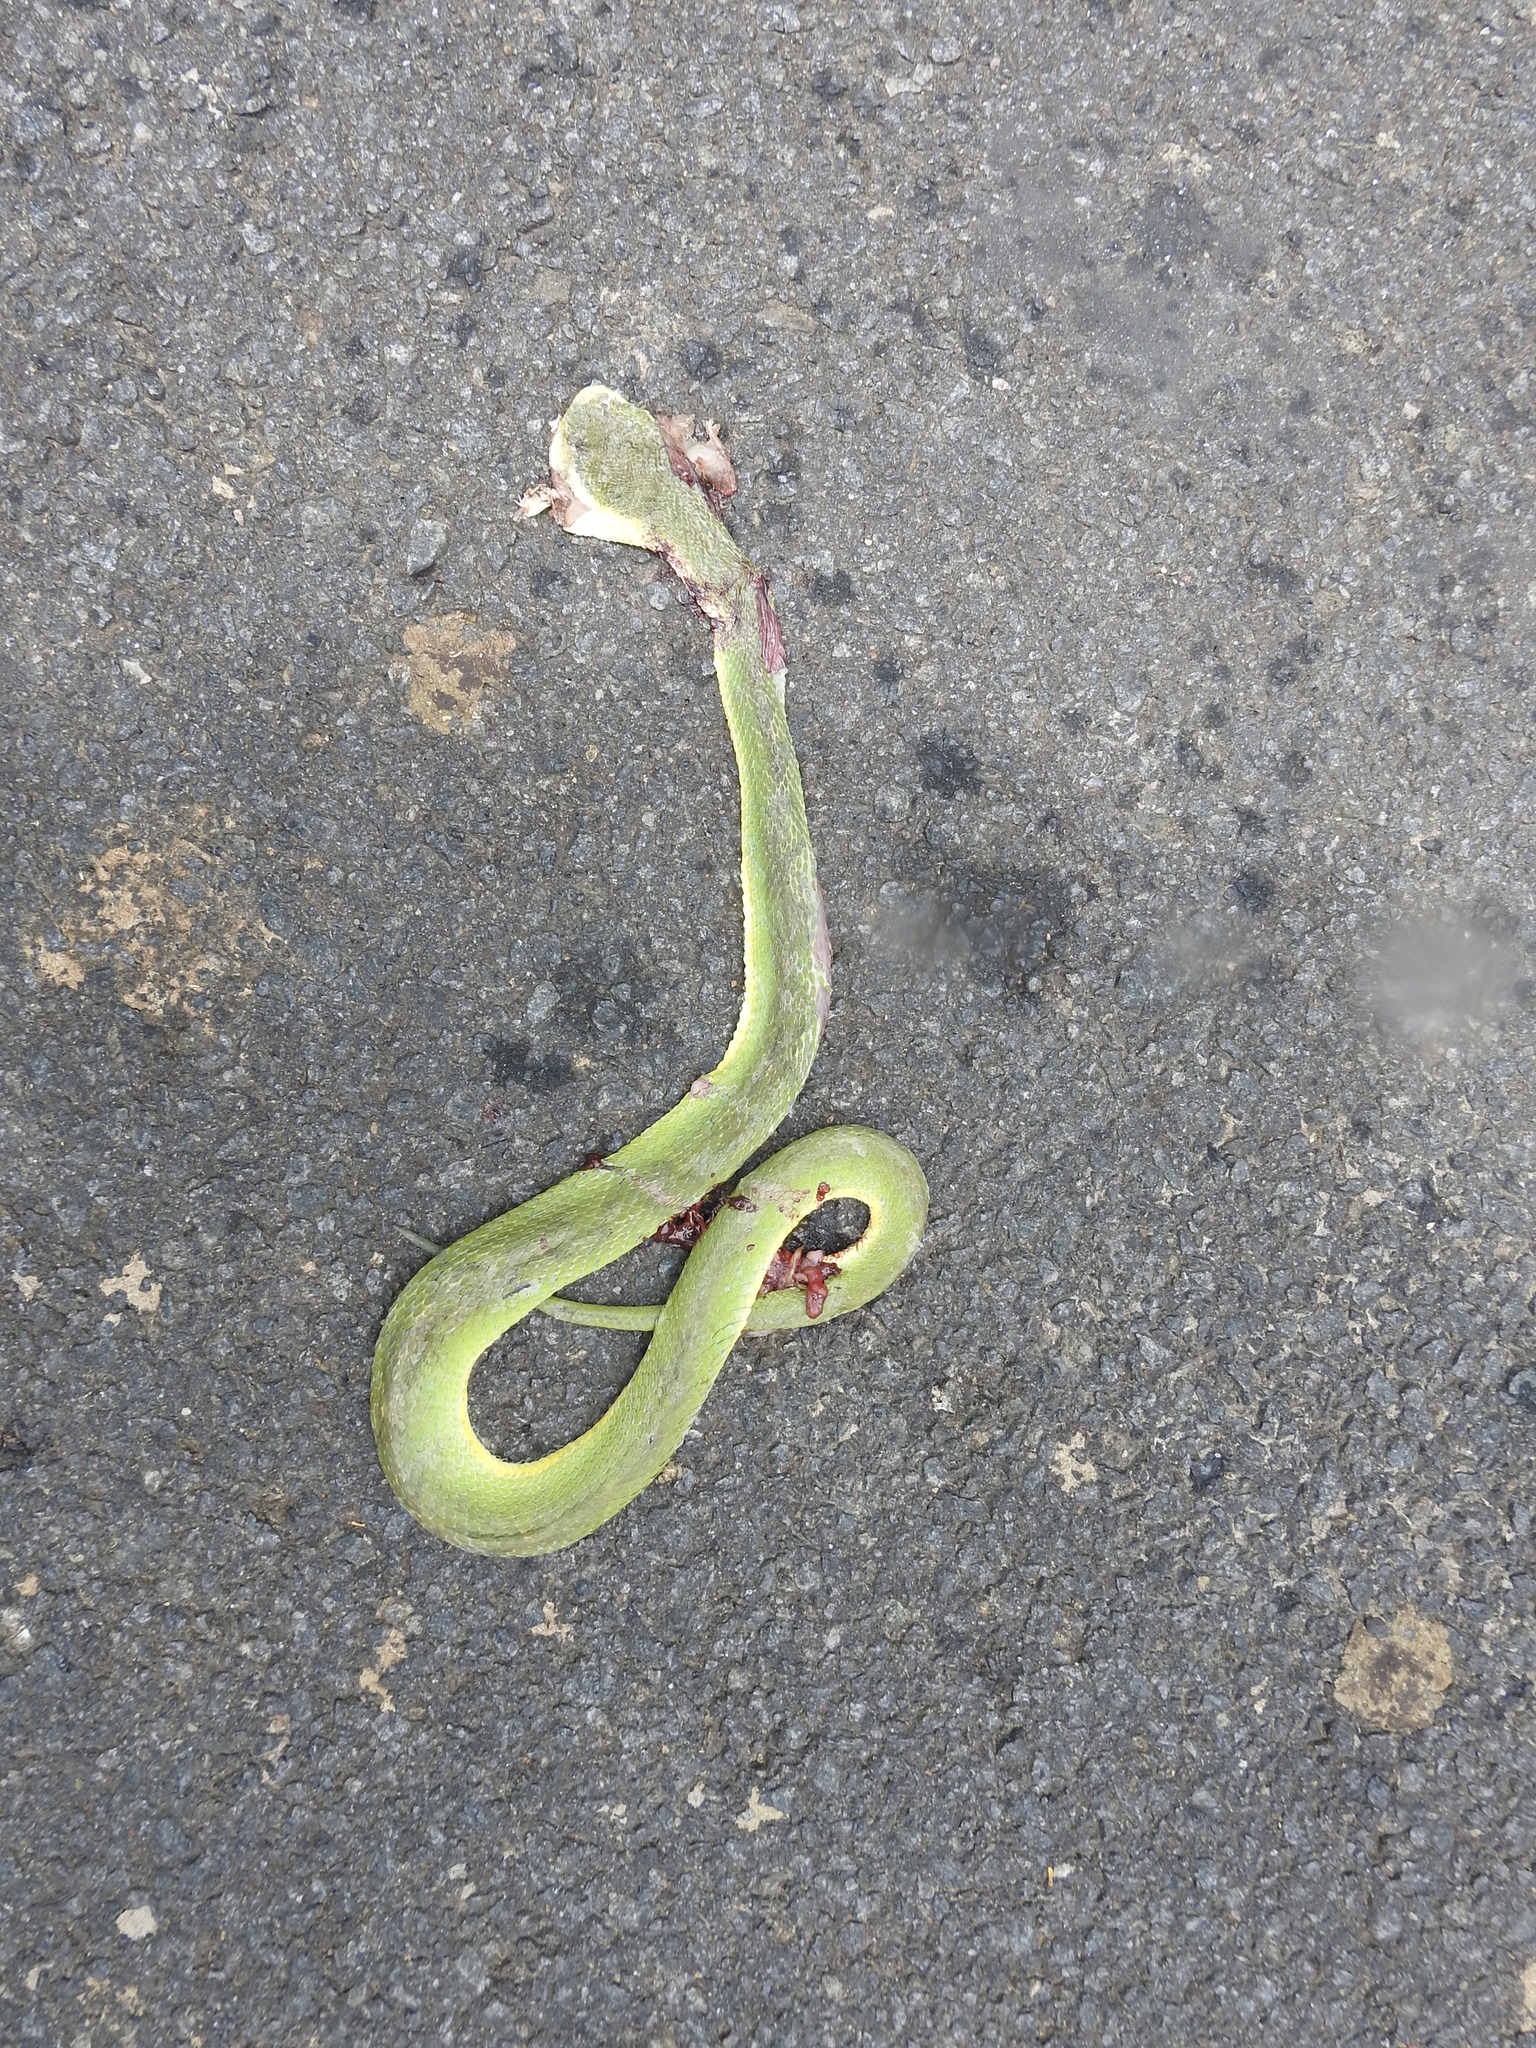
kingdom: Animalia
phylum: Chordata
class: Squamata
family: Viperidae
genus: Craspedocephalus
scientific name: Craspedocephalus gramineus
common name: Common bamboo viper
